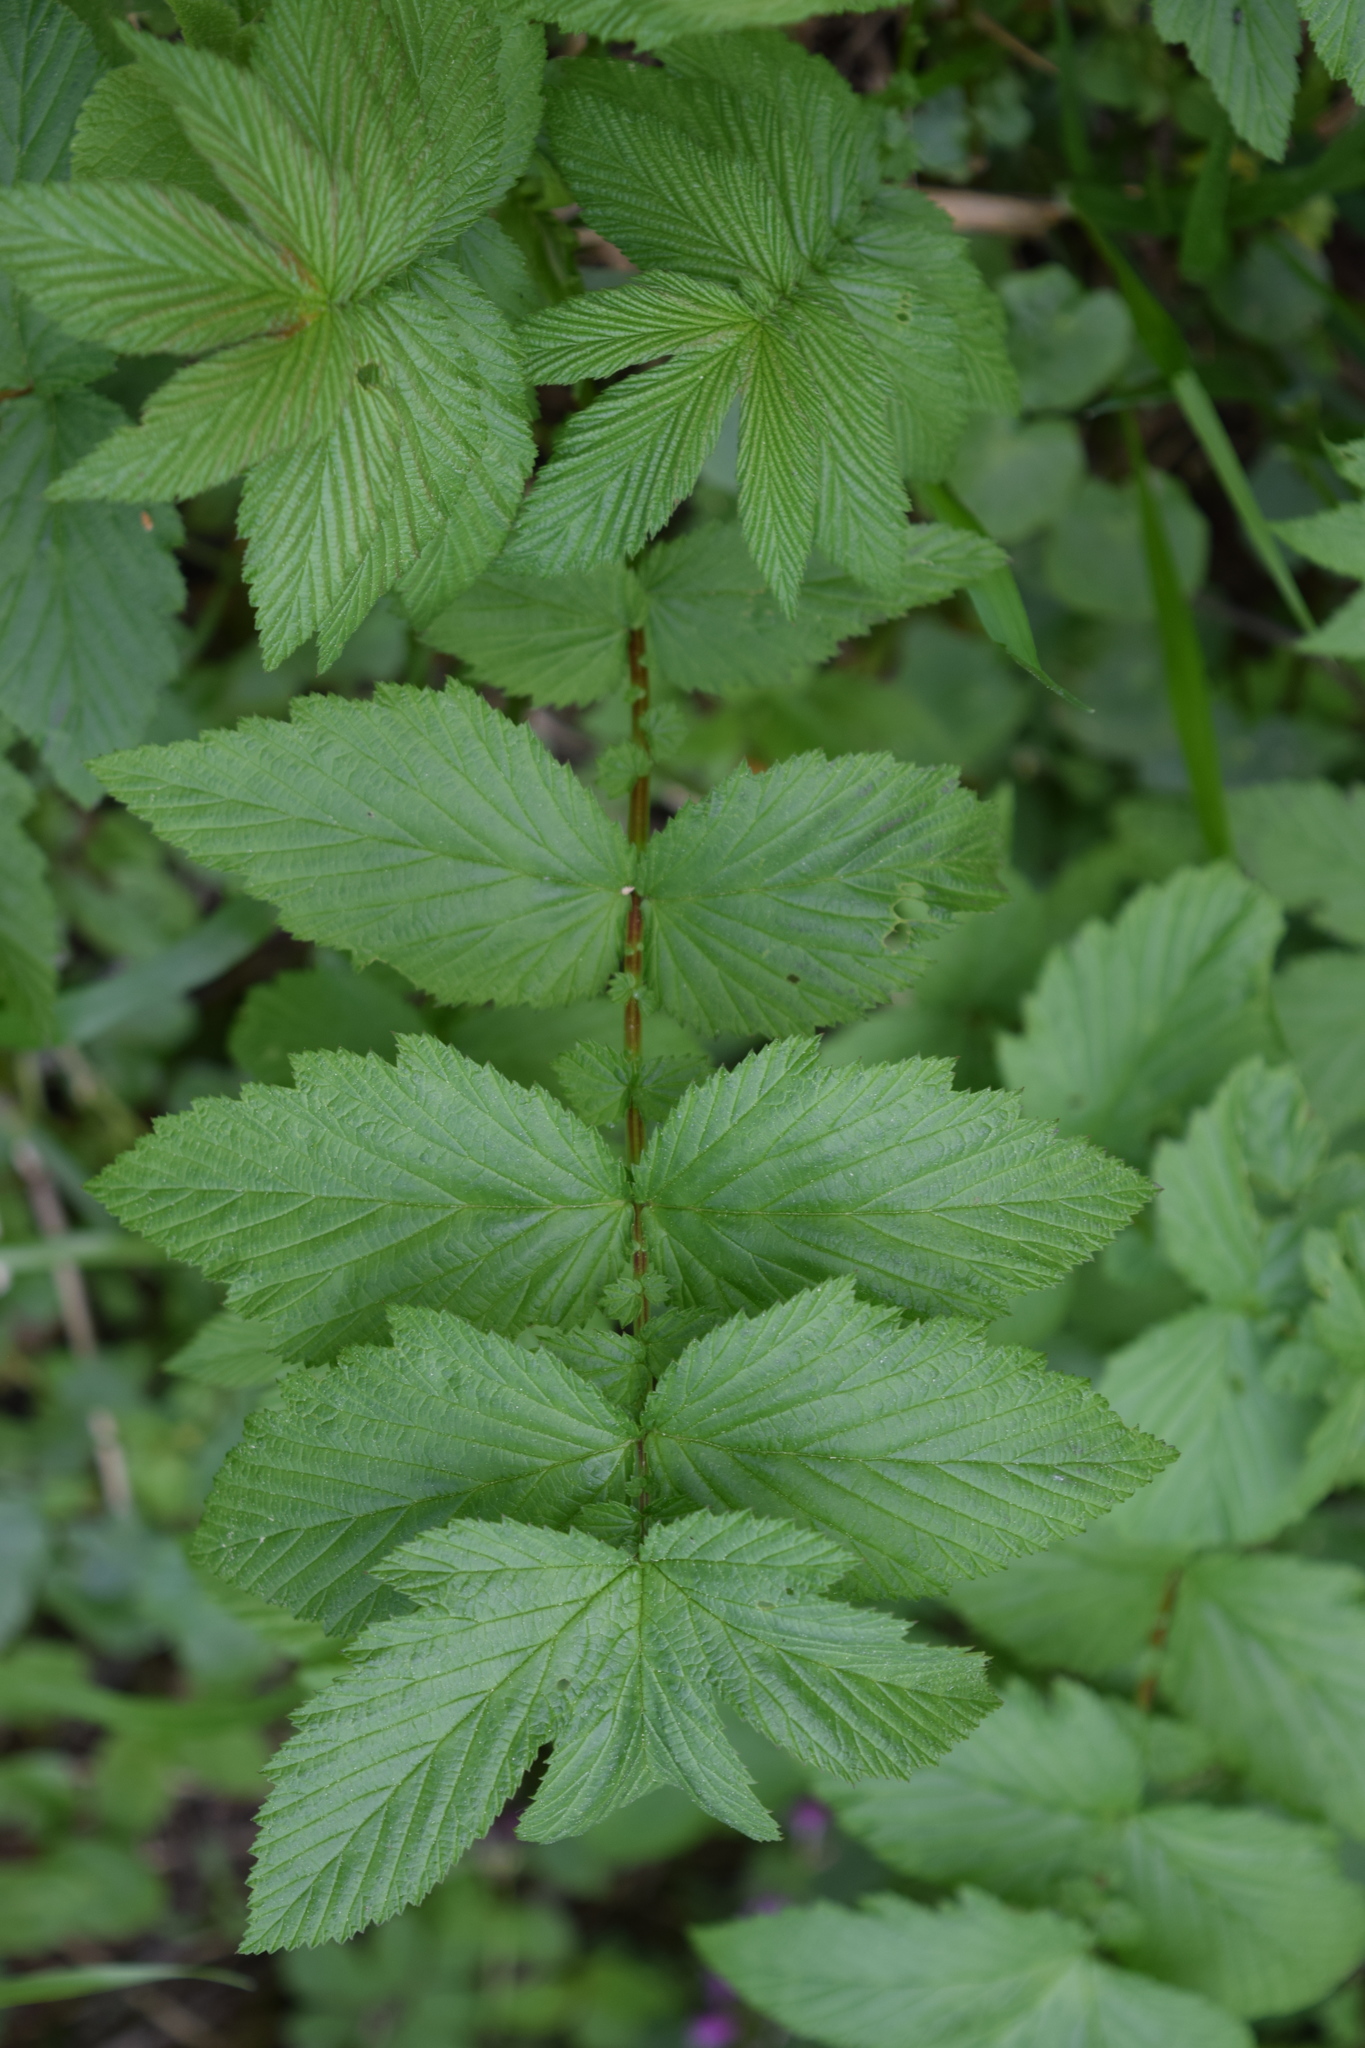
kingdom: Plantae
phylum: Tracheophyta
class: Magnoliopsida
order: Rosales
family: Rosaceae
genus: Filipendula
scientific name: Filipendula ulmaria
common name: Meadowsweet
